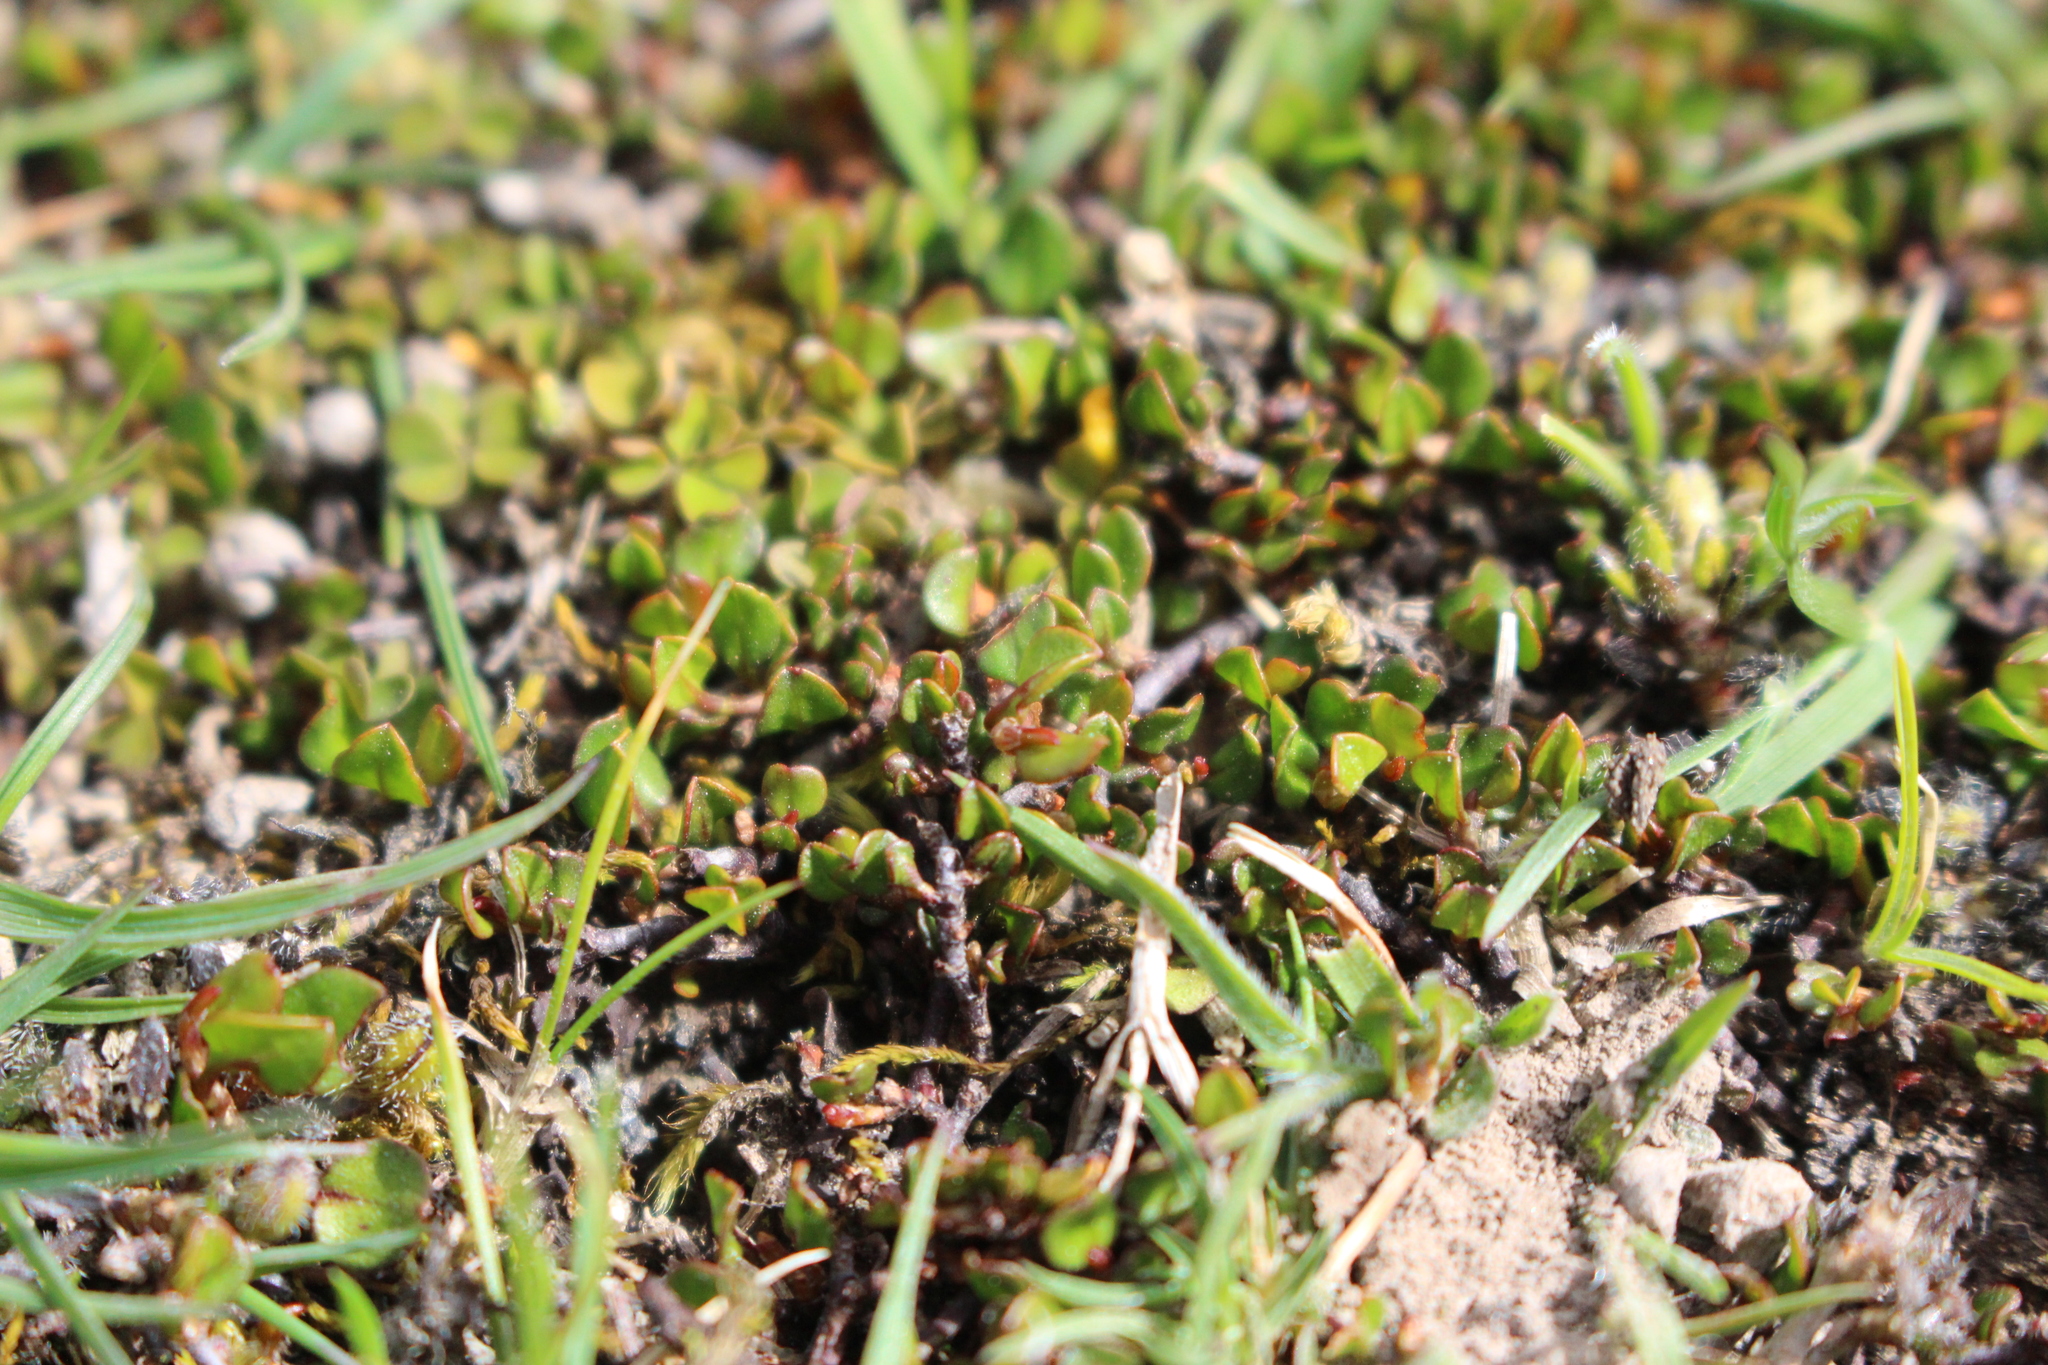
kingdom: Plantae
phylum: Tracheophyta
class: Magnoliopsida
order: Gentianales
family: Rubiaceae
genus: Coprosma
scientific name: Coprosma atropurpurea
